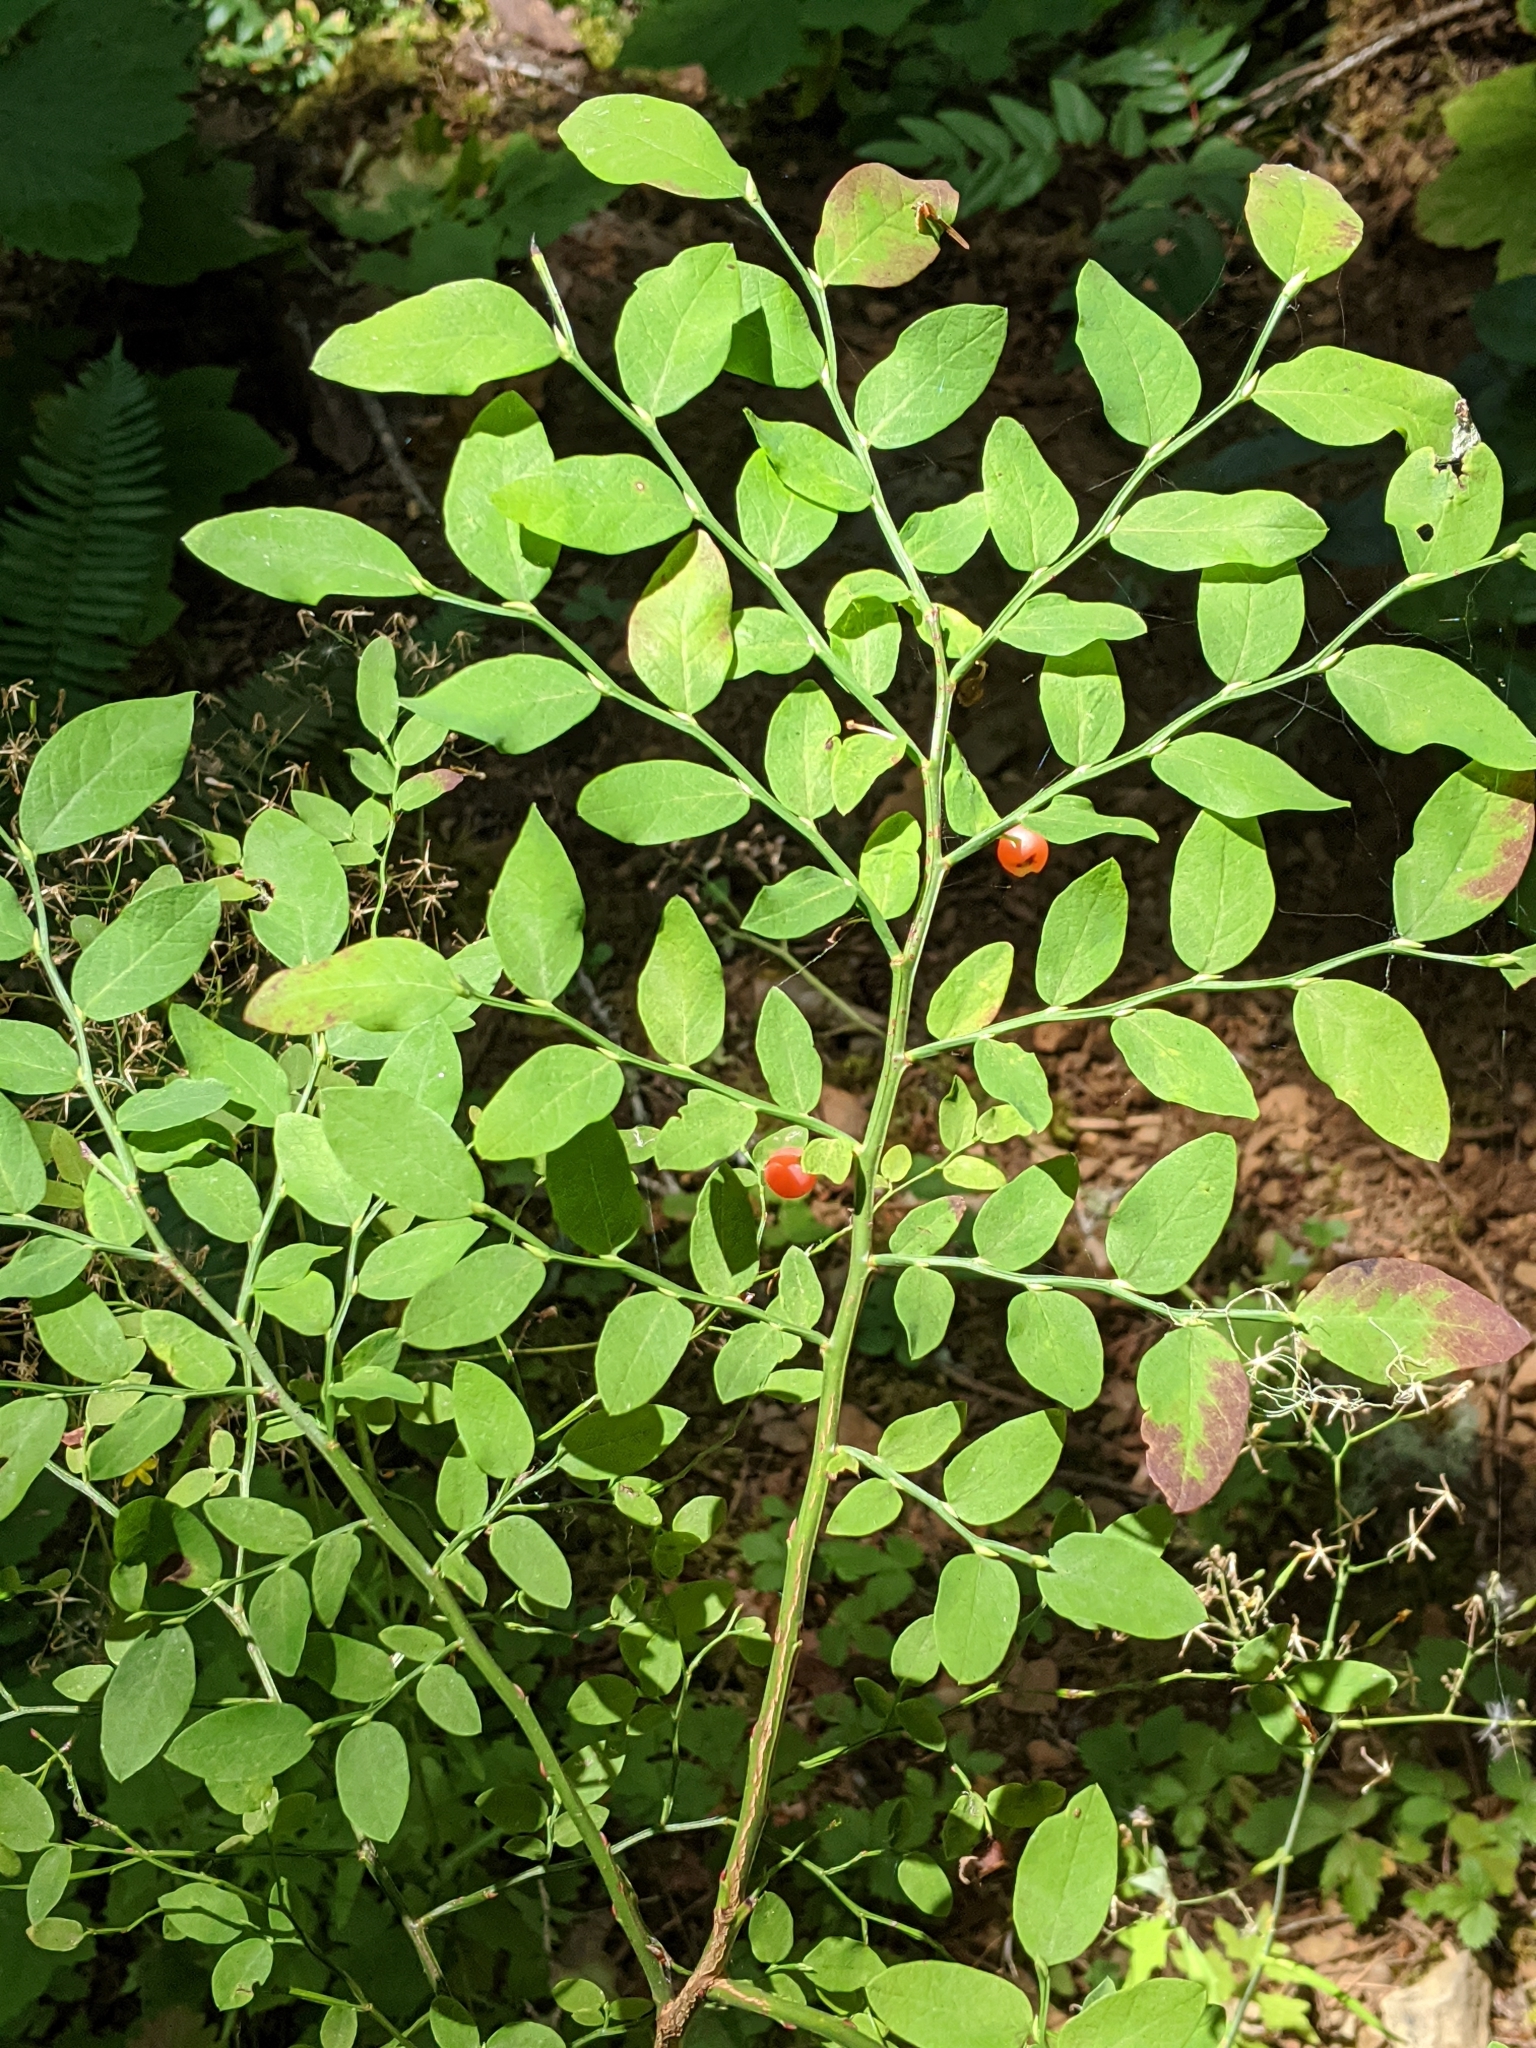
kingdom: Plantae
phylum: Tracheophyta
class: Magnoliopsida
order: Ericales
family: Ericaceae
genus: Vaccinium
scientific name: Vaccinium parvifolium
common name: Red-huckleberry
